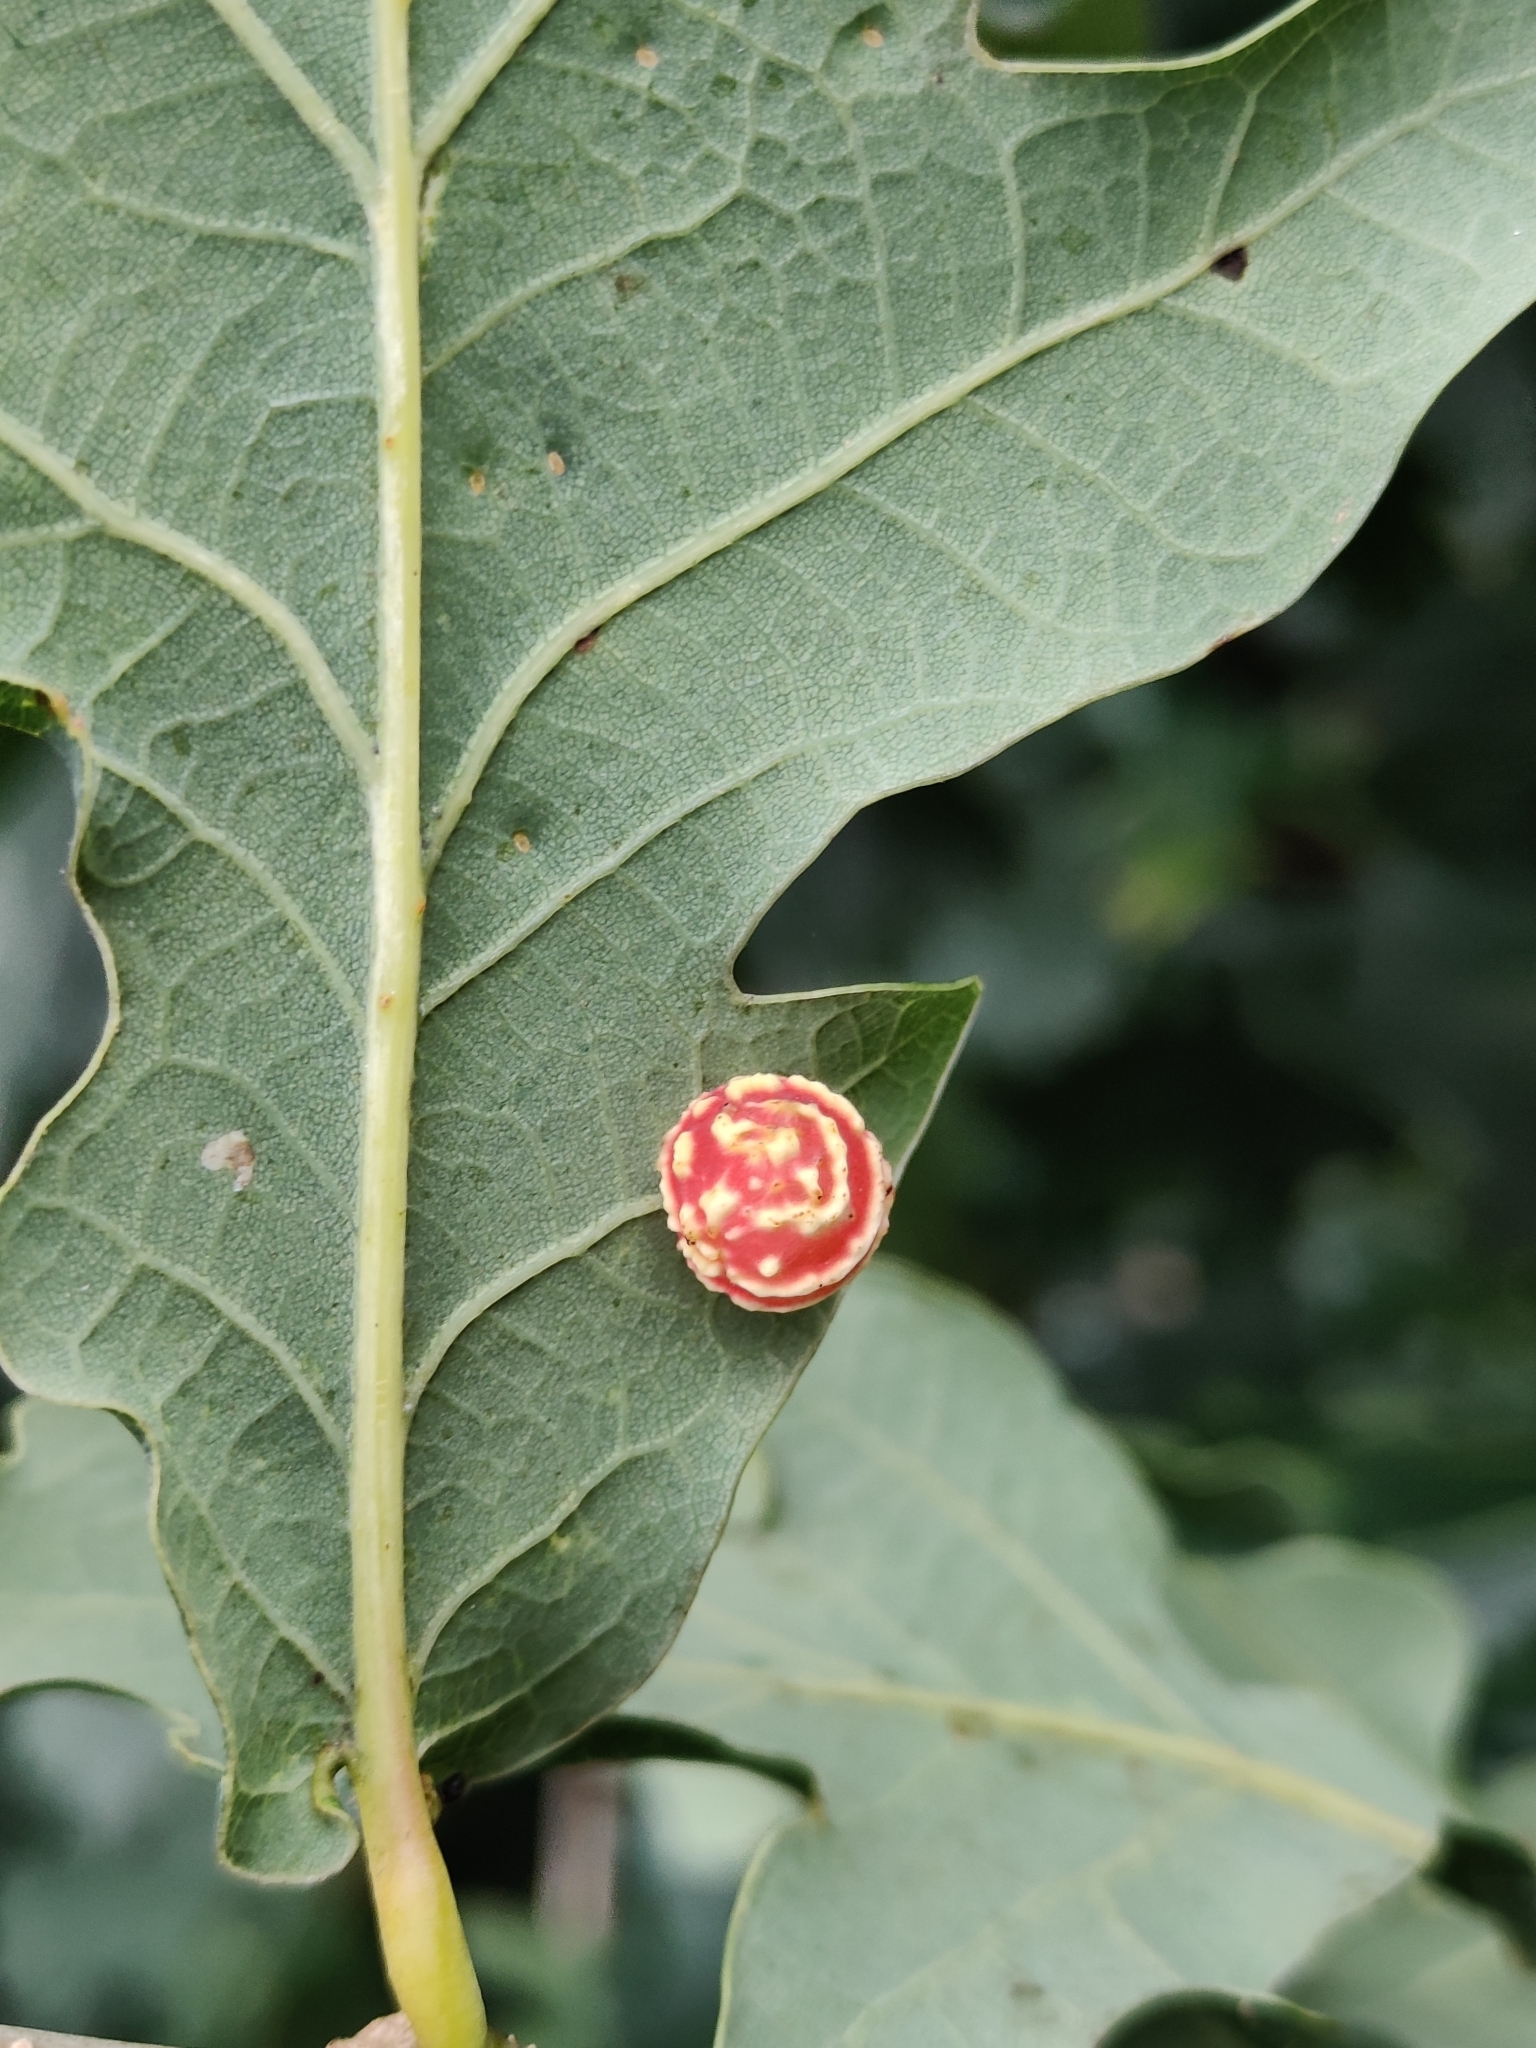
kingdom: Animalia
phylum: Arthropoda
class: Insecta
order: Hymenoptera
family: Cynipidae
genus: Cynips
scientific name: Cynips longiventris
